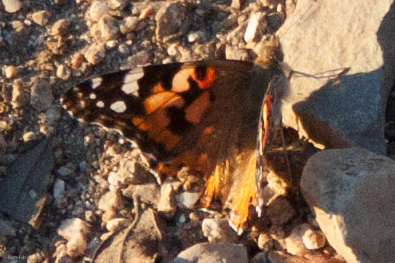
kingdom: Animalia
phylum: Arthropoda
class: Insecta
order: Lepidoptera
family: Nymphalidae
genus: Vanessa
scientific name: Vanessa cardui
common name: Painted lady
